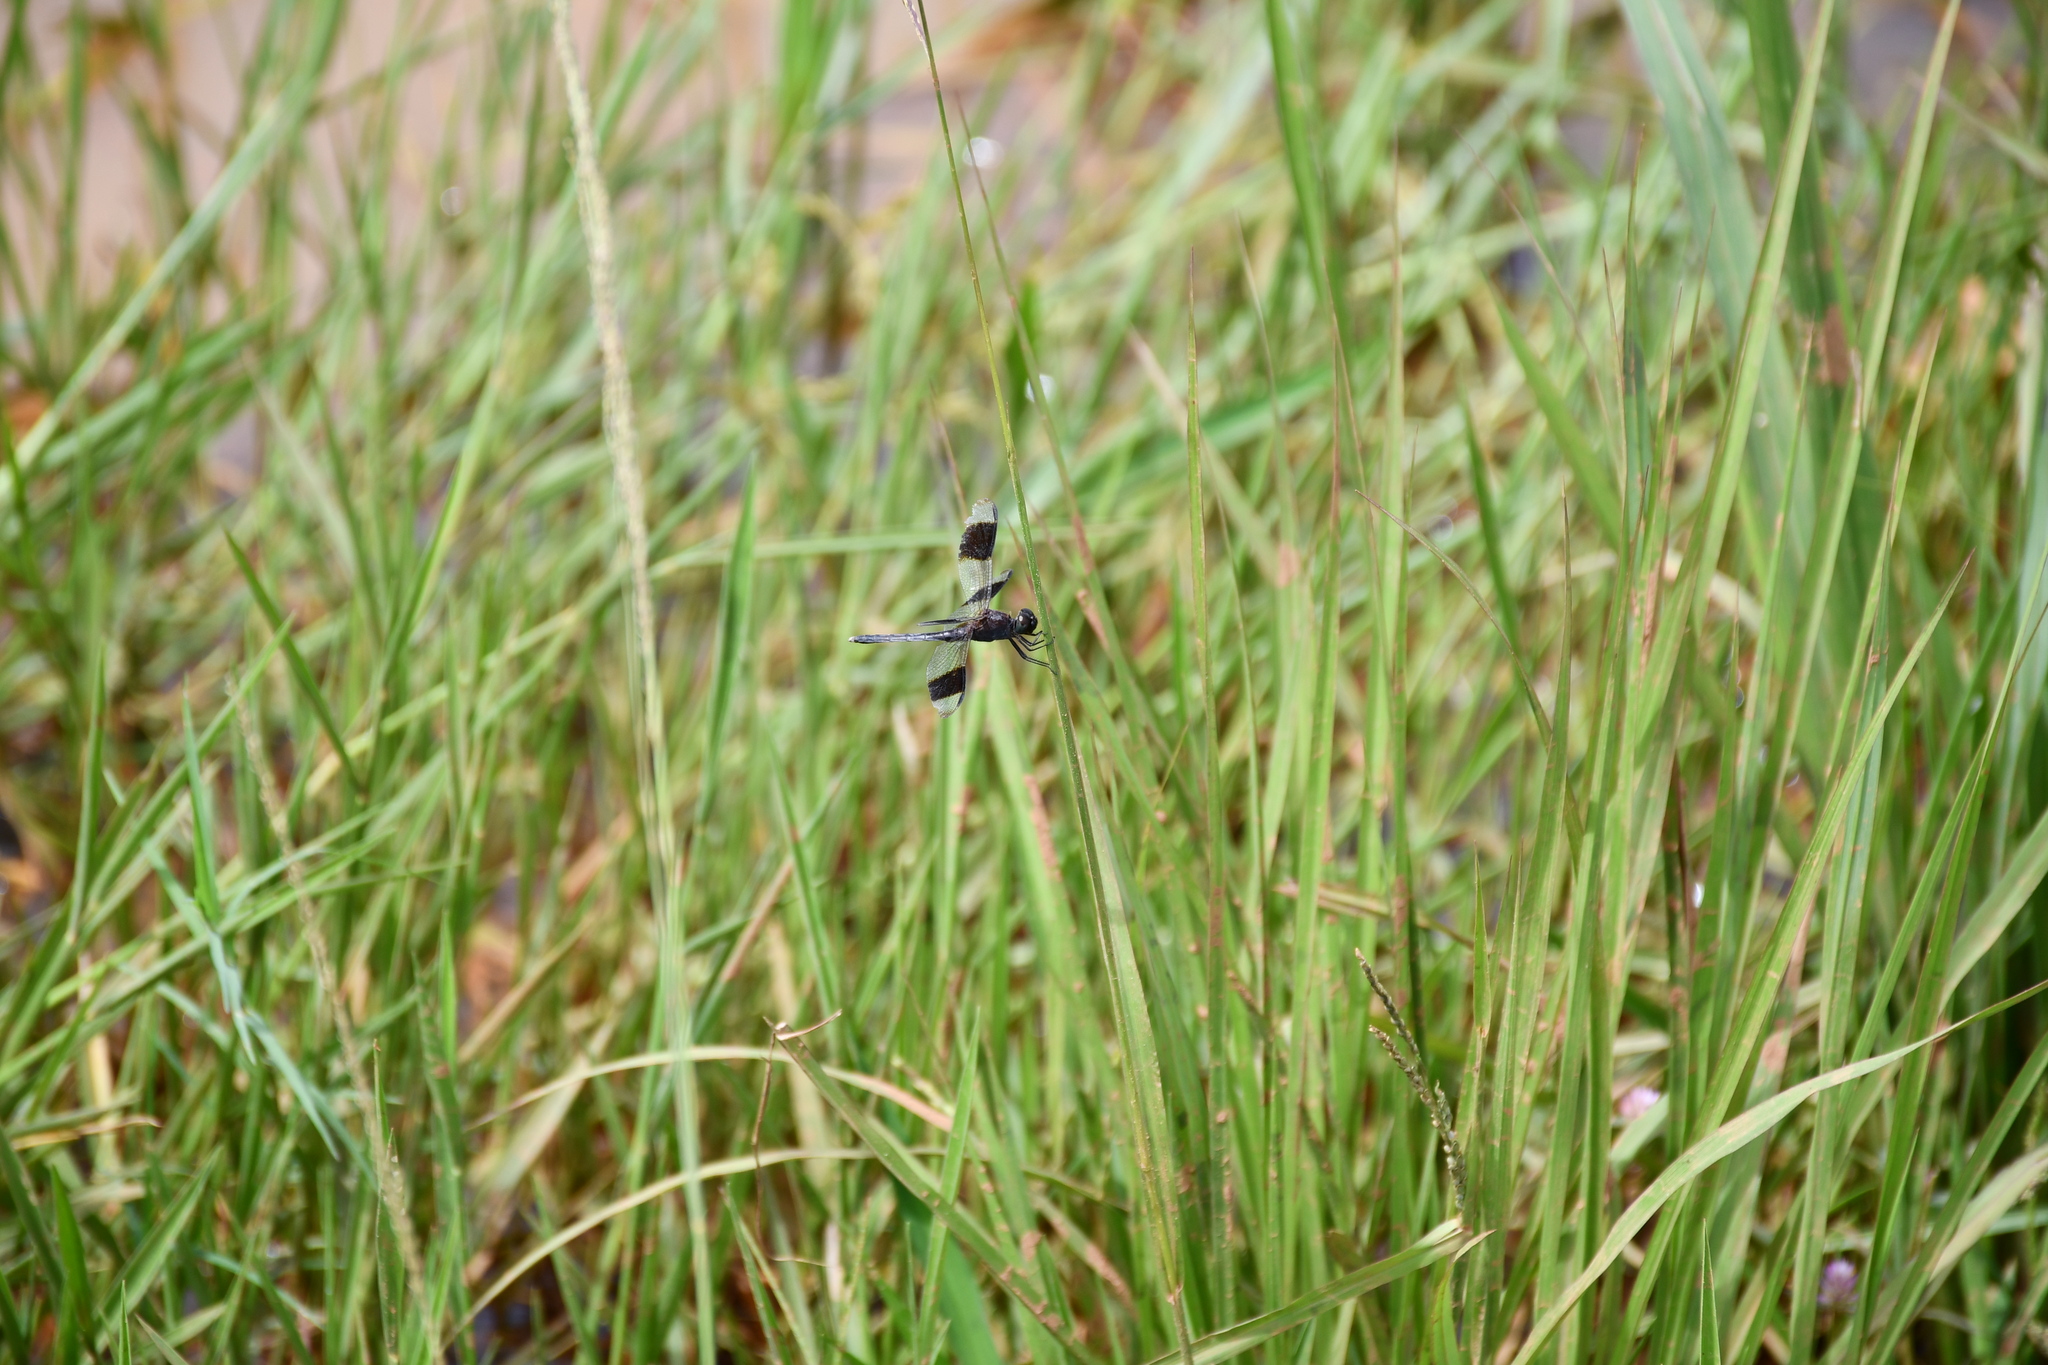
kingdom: Animalia
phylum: Arthropoda
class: Insecta
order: Odonata
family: Libellulidae
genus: Erythrodiplax
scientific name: Erythrodiplax umbrata
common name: Band-winged dragonlet
